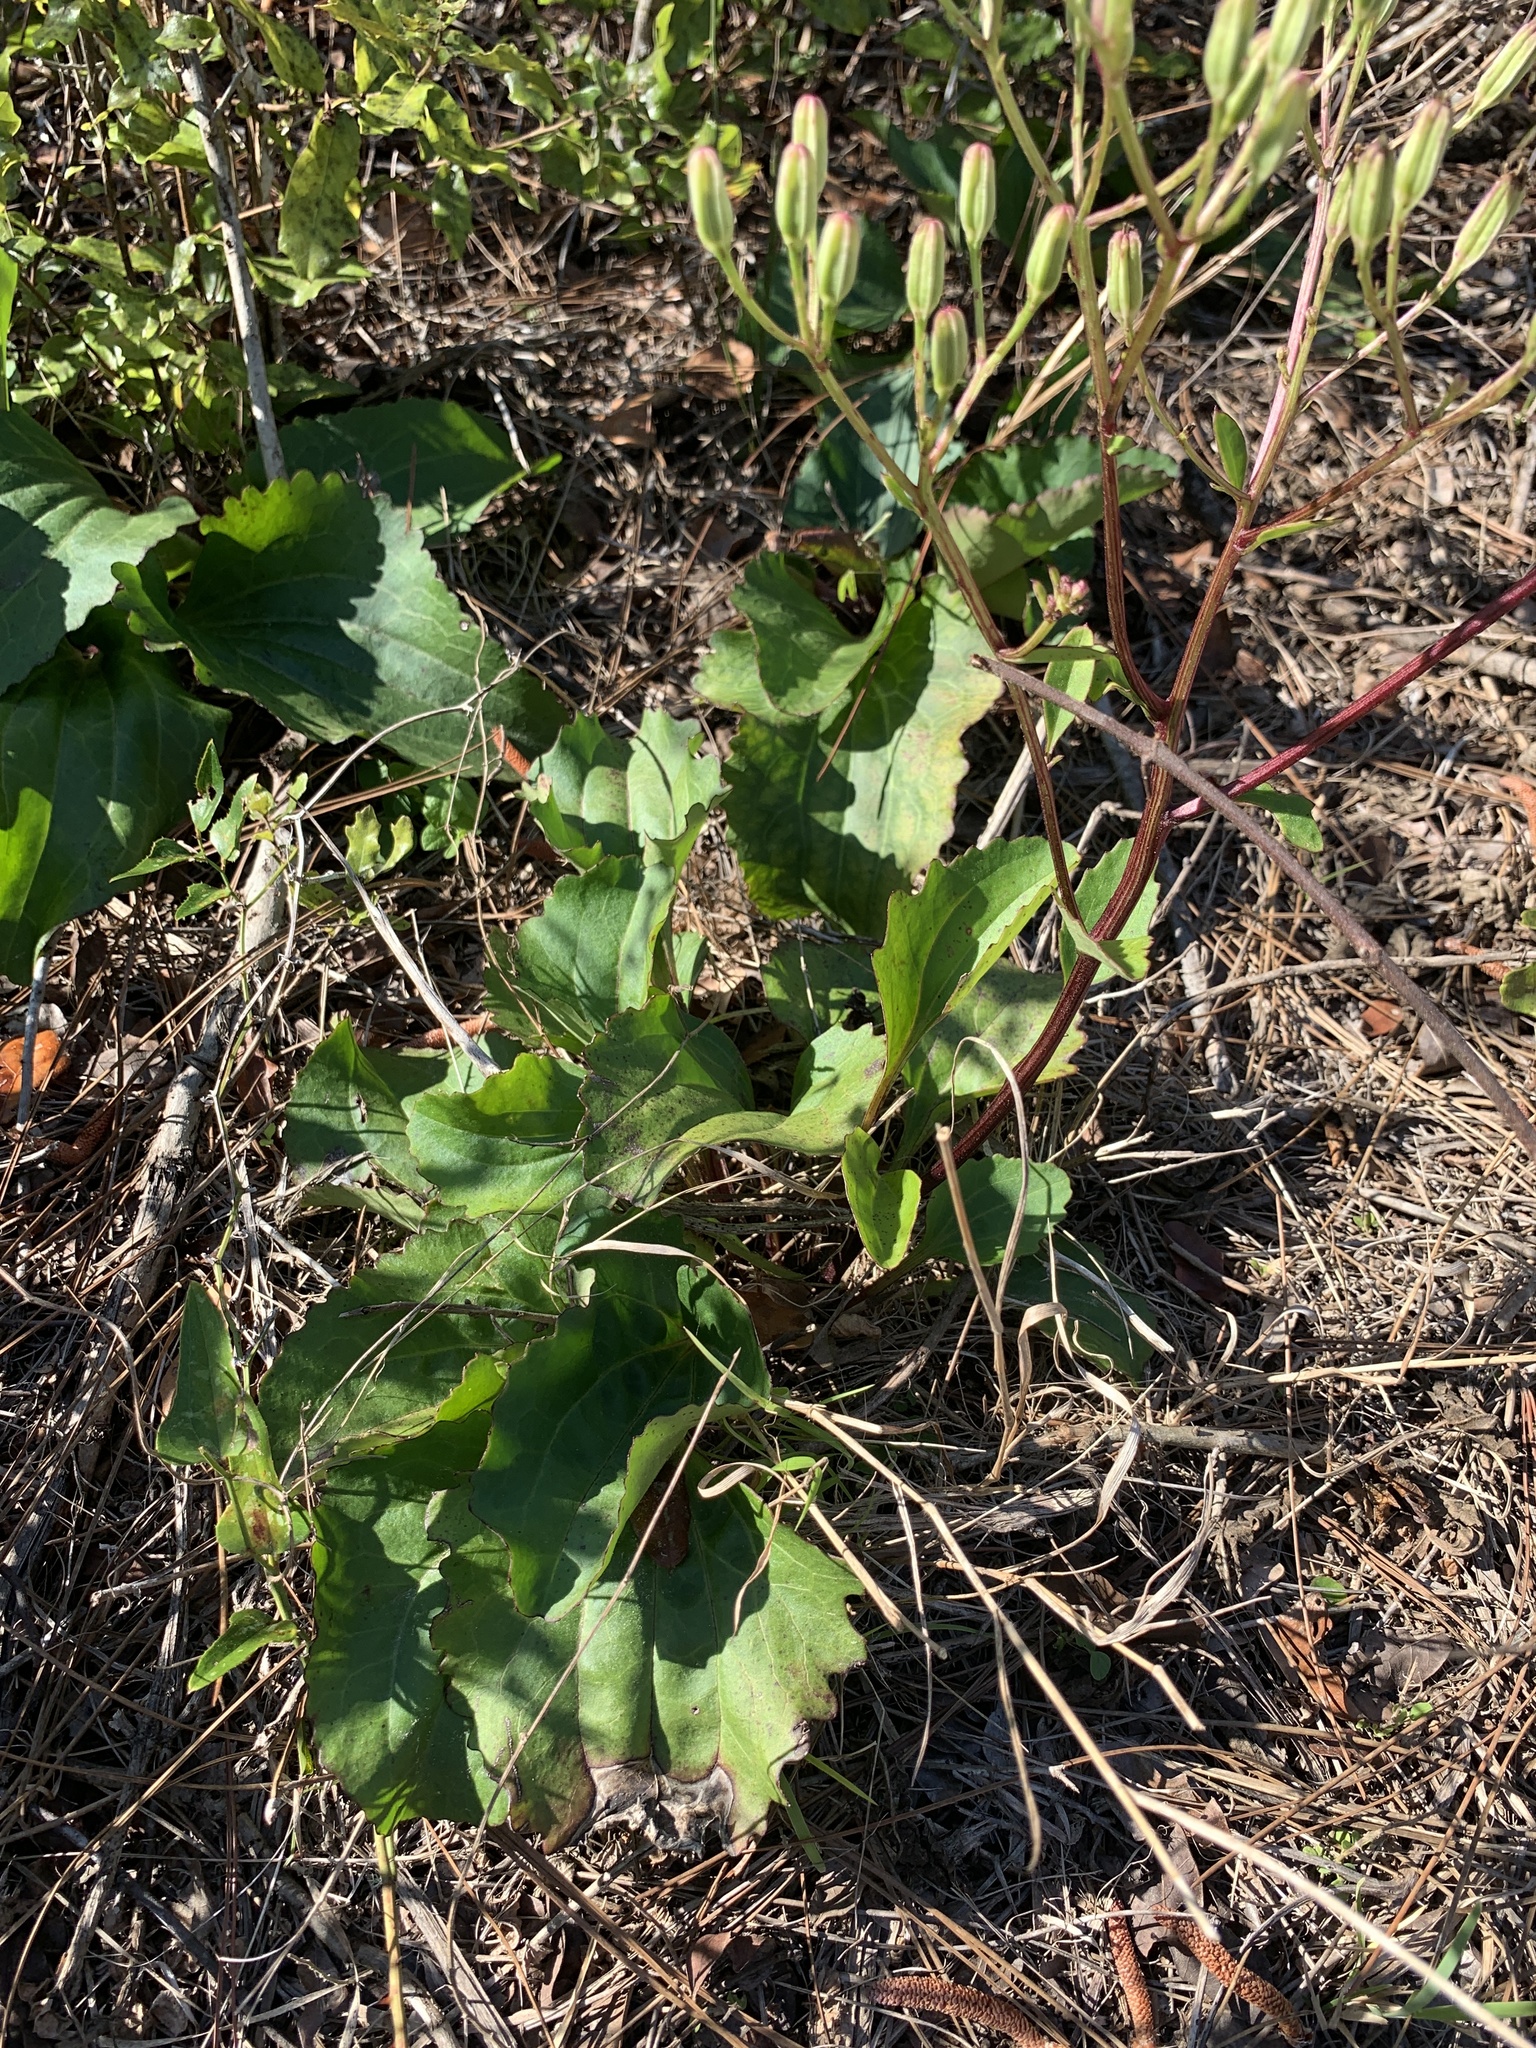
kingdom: Plantae
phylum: Tracheophyta
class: Magnoliopsida
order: Asterales
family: Asteraceae
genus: Arnoglossum
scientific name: Arnoglossum floridanum
